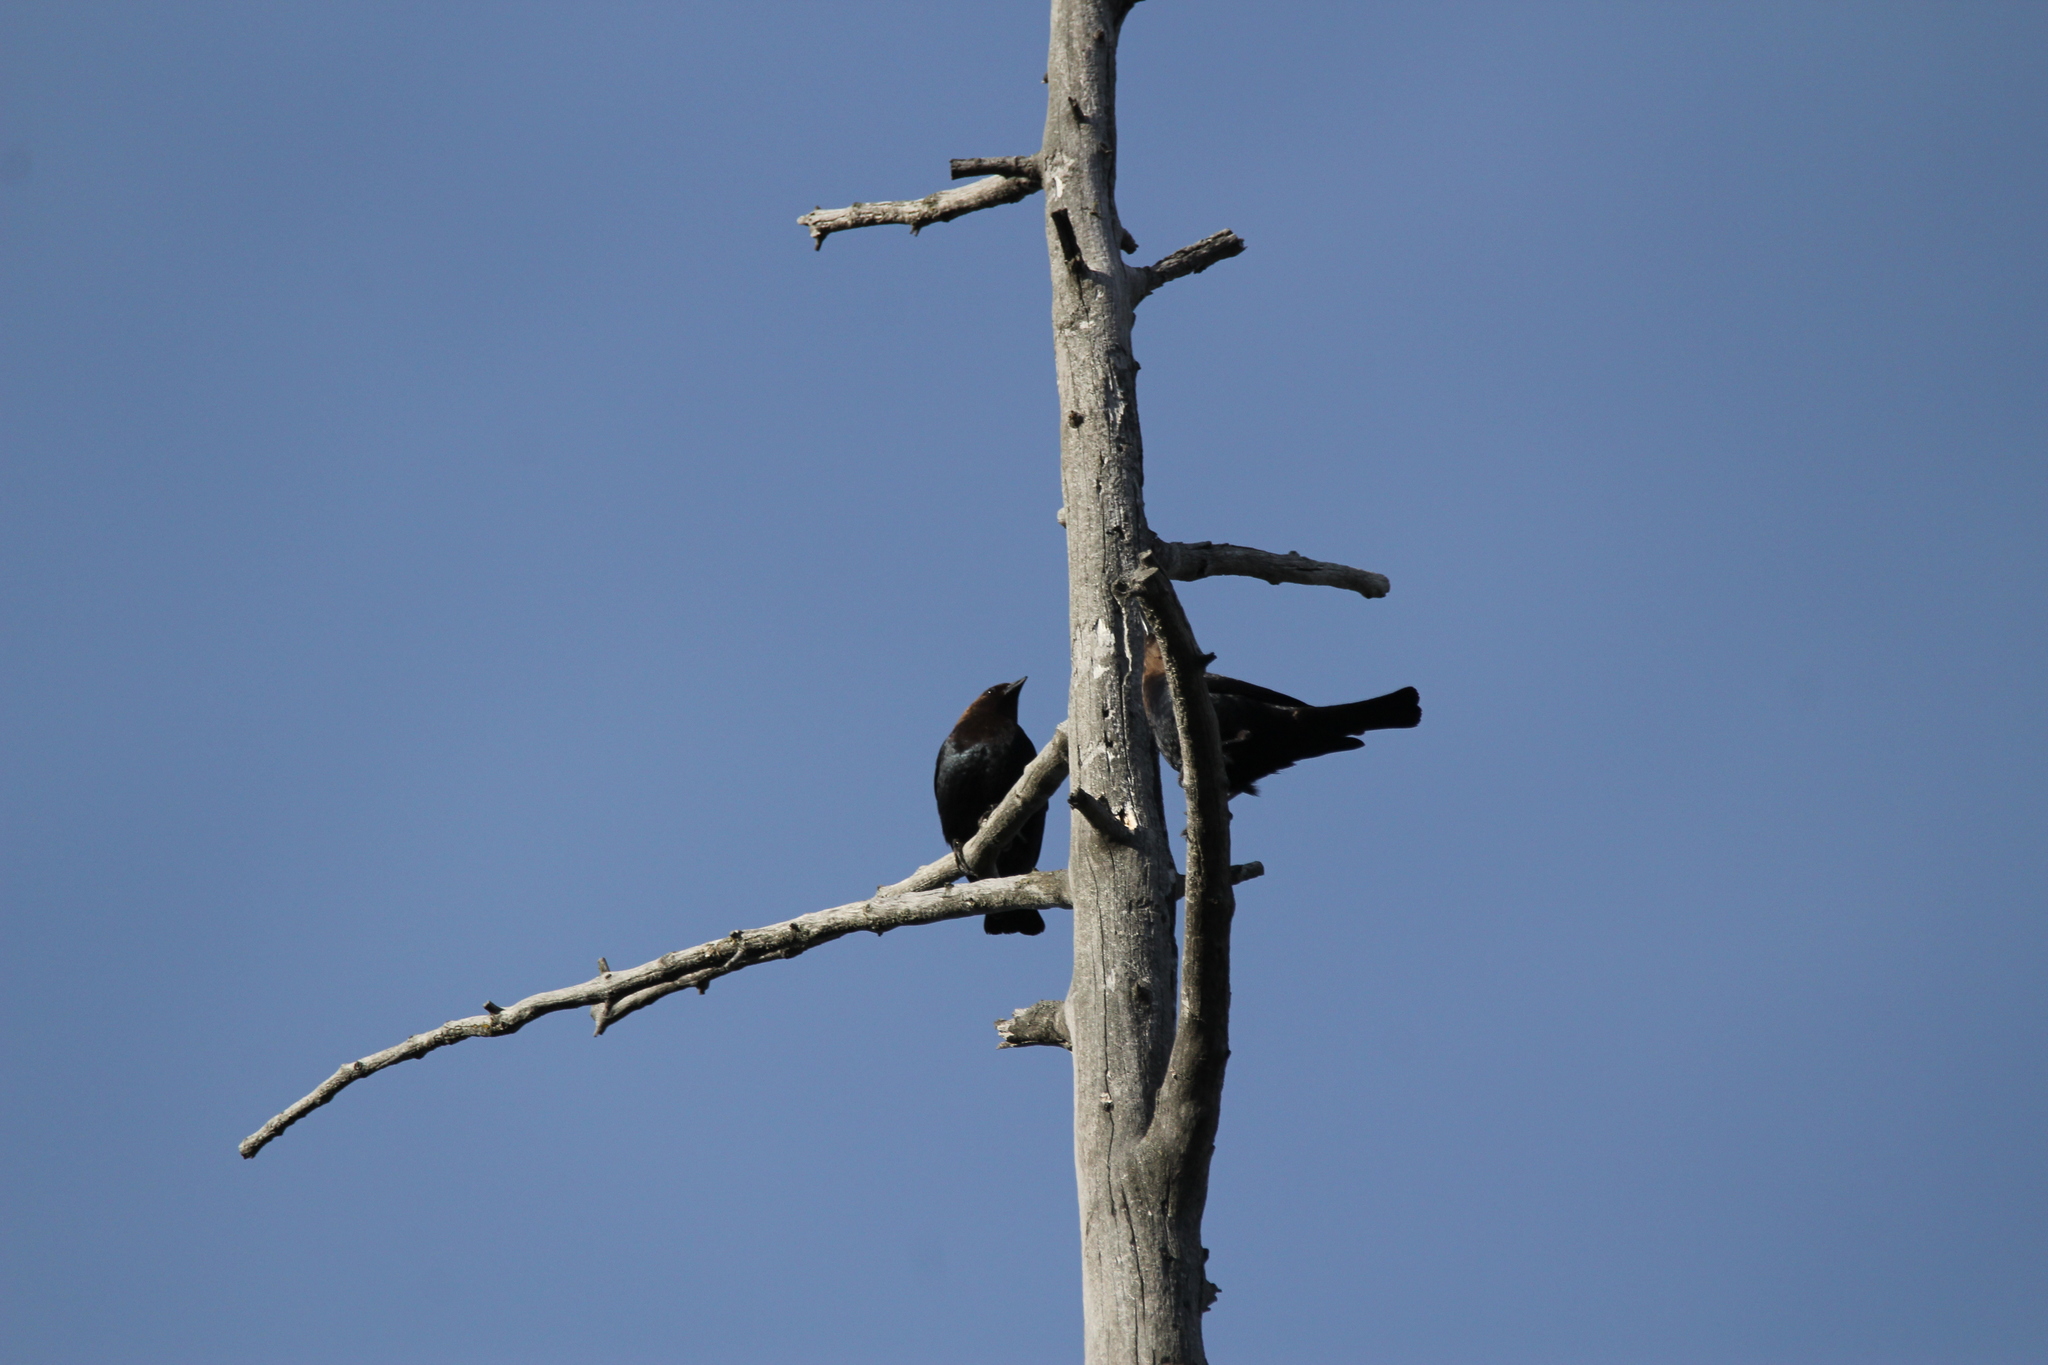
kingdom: Animalia
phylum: Chordata
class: Aves
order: Passeriformes
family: Icteridae
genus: Molothrus
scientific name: Molothrus ater
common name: Brown-headed cowbird
